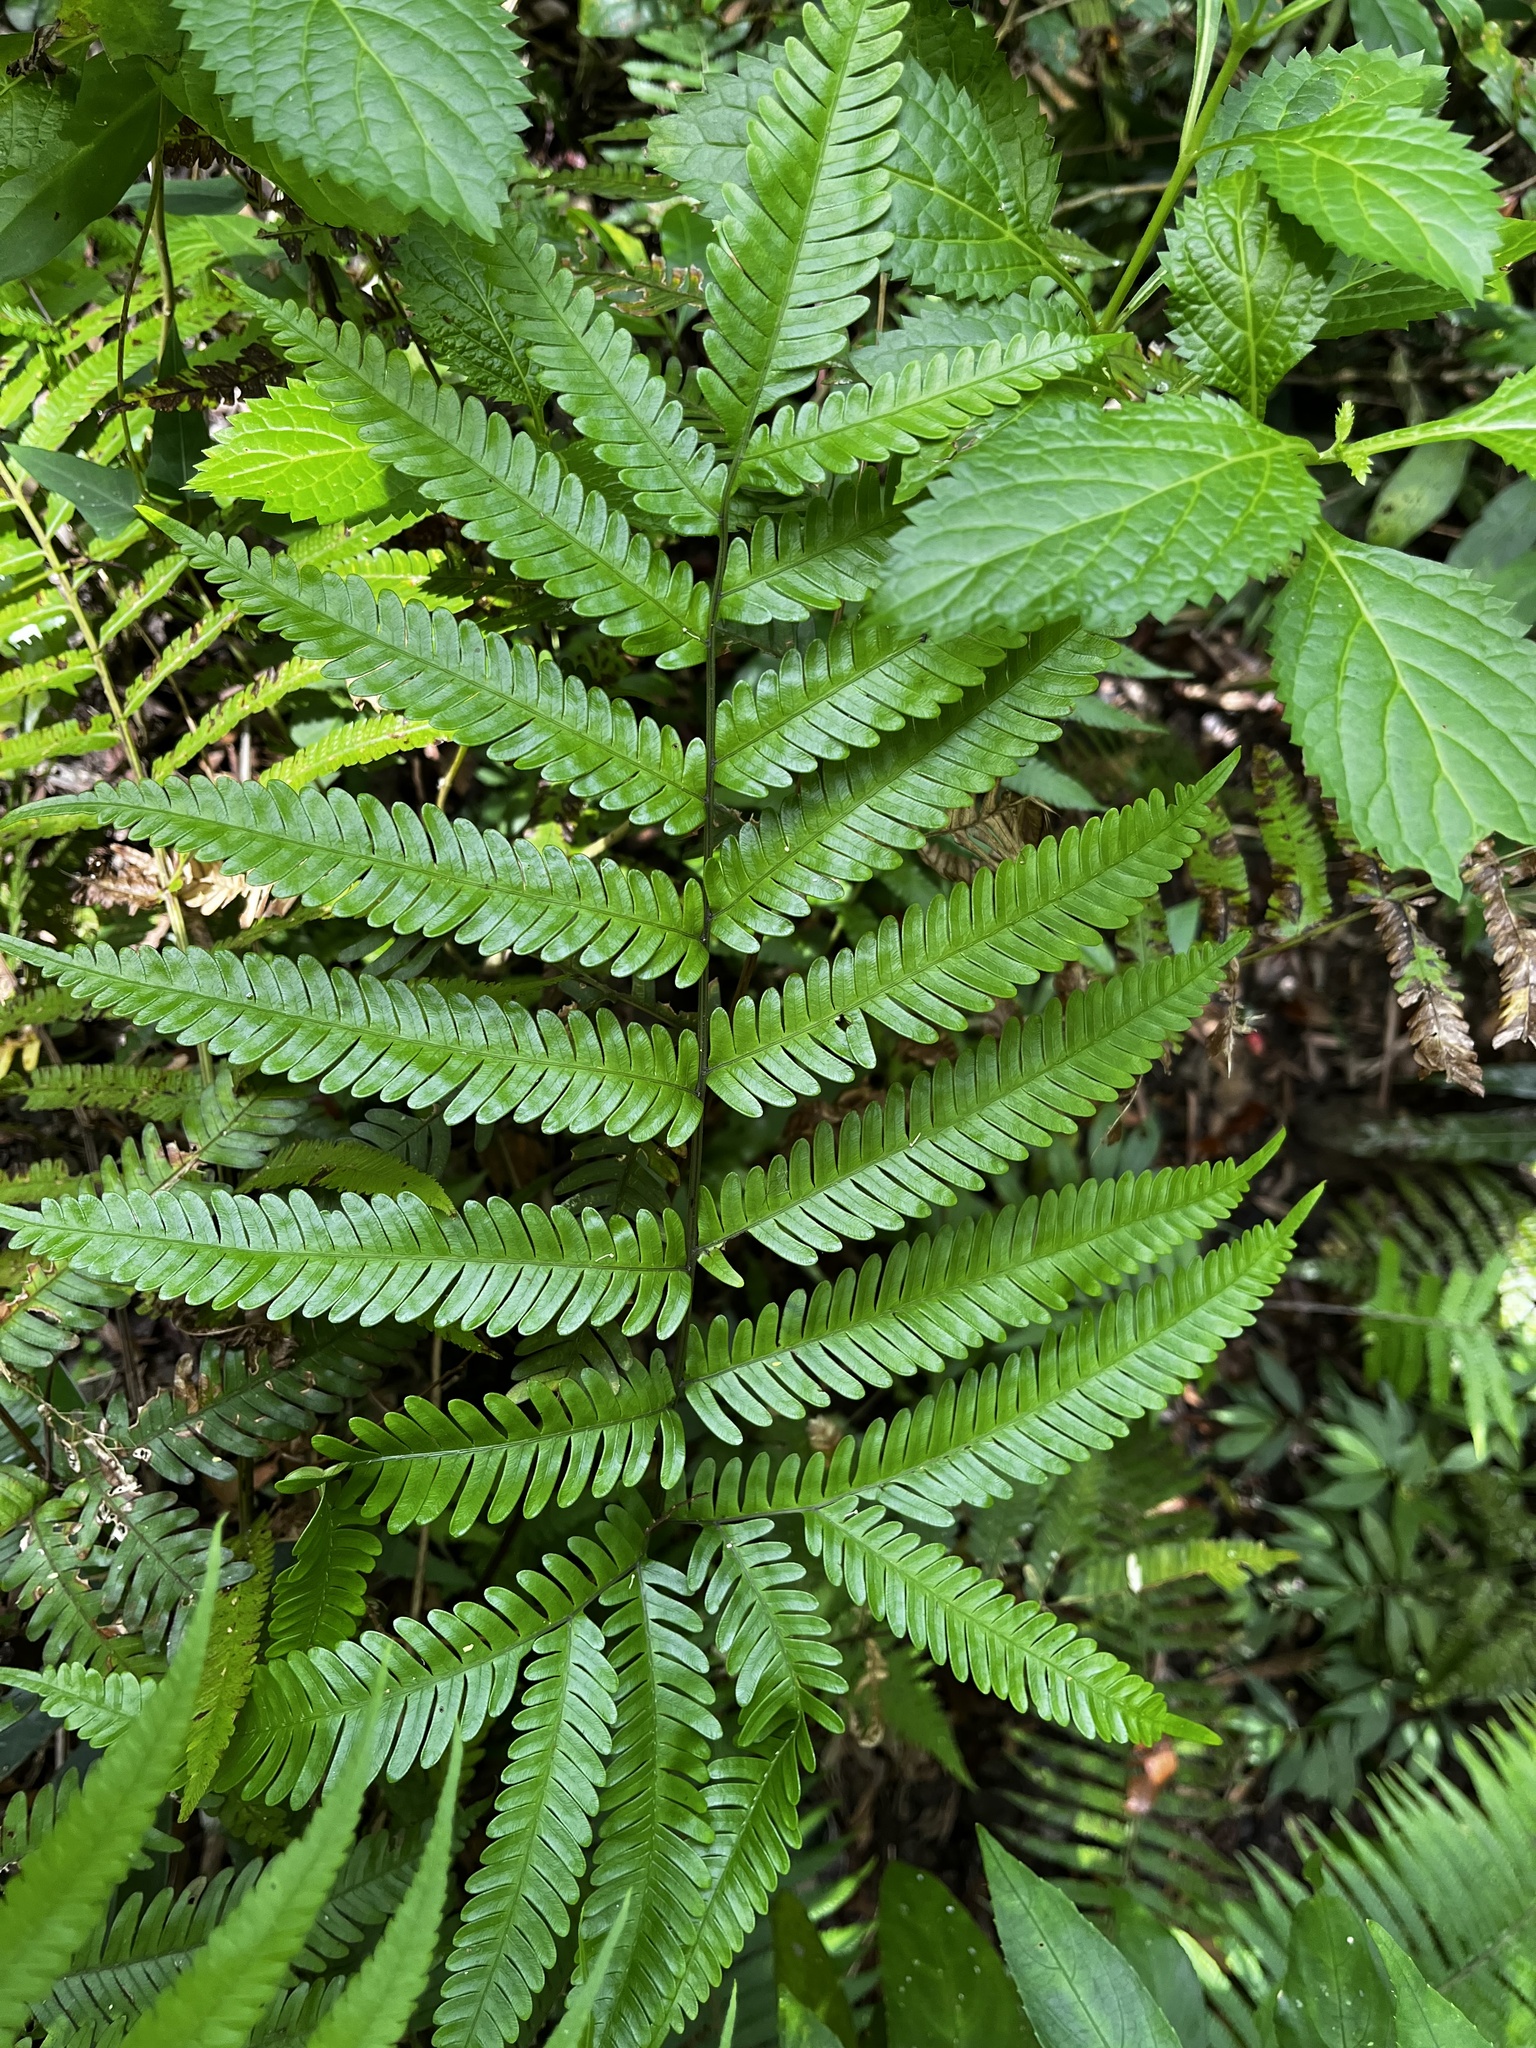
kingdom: Plantae
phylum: Tracheophyta
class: Polypodiopsida
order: Polypodiales
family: Pteridaceae
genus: Pteris
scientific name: Pteris fauriei
